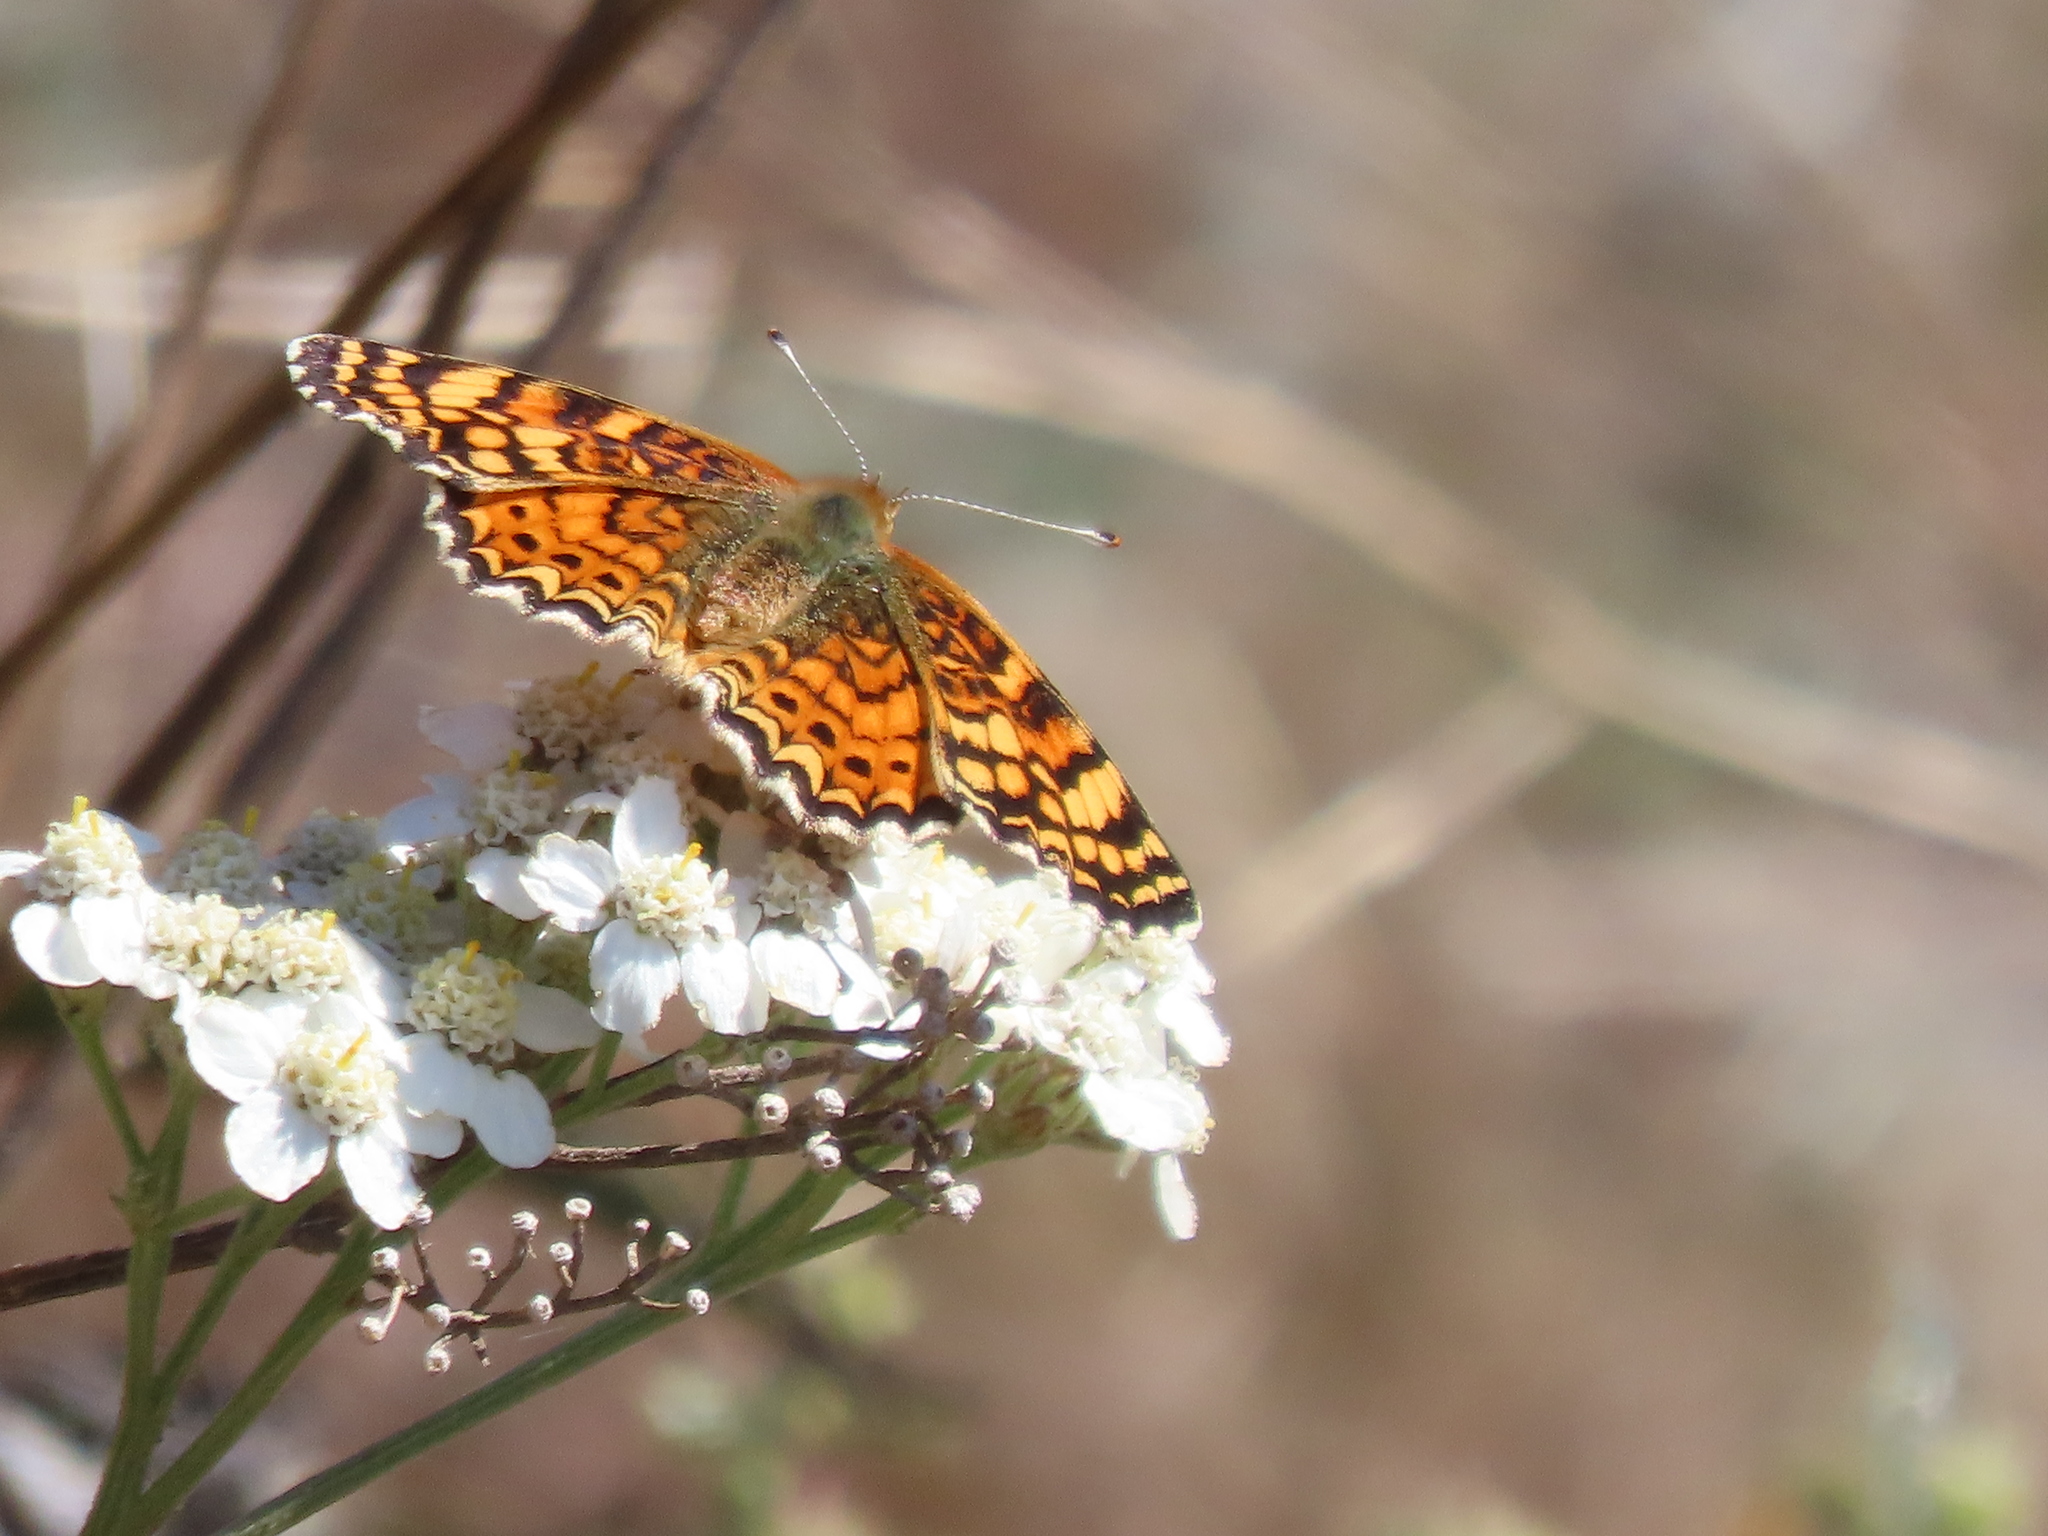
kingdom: Animalia
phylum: Arthropoda
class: Insecta
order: Lepidoptera
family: Nymphalidae
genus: Eresia
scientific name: Eresia aveyrona
